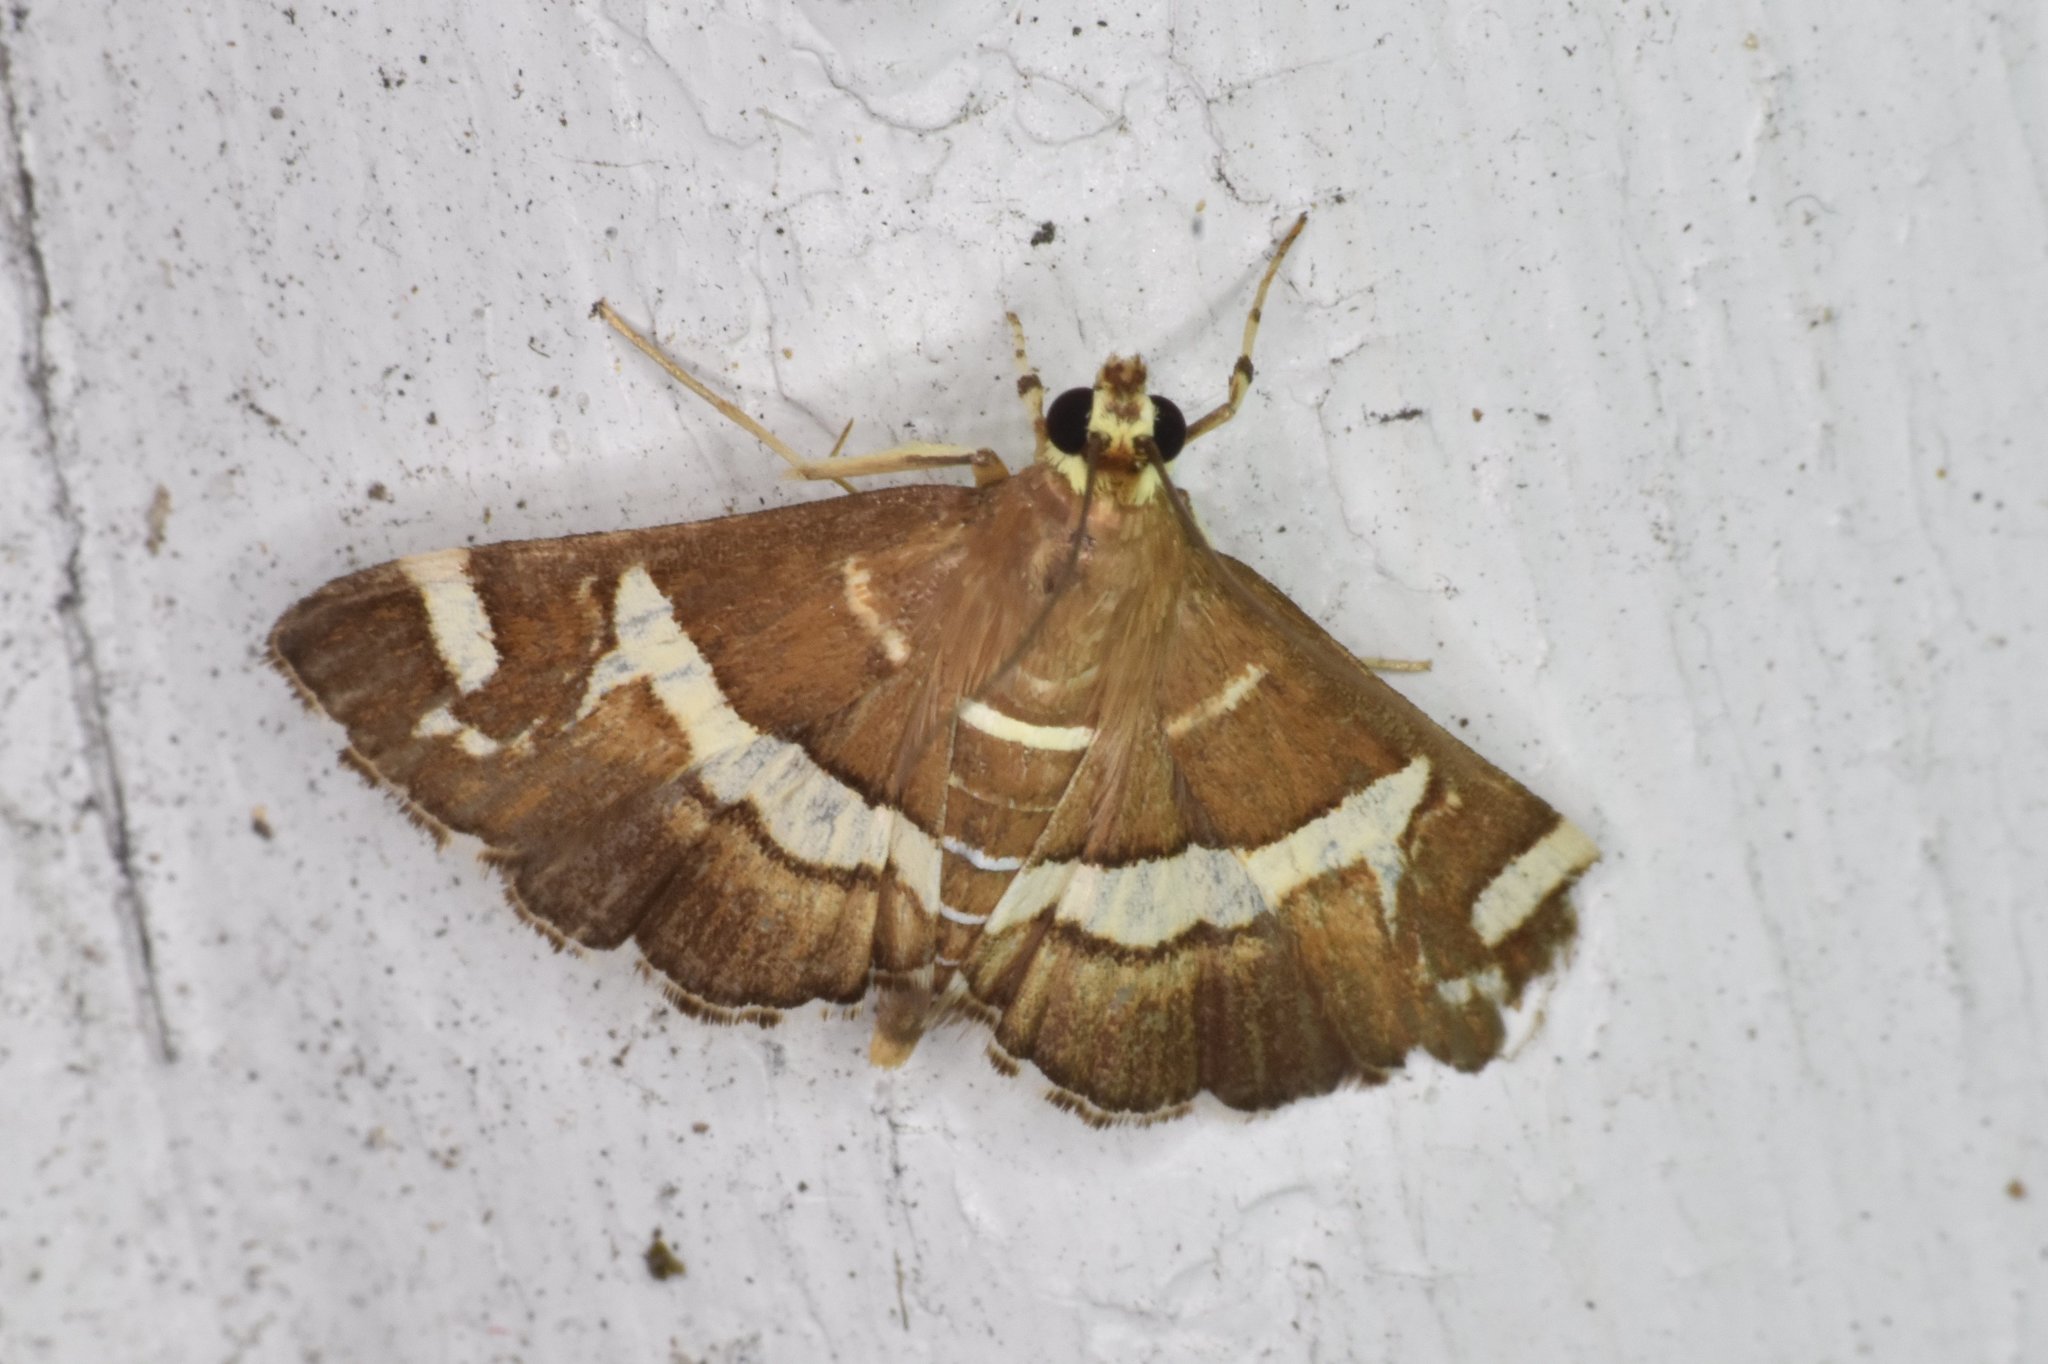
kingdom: Animalia
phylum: Arthropoda
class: Insecta
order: Lepidoptera
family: Crambidae
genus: Spoladea
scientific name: Spoladea recurvalis
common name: Beet webworm moth
